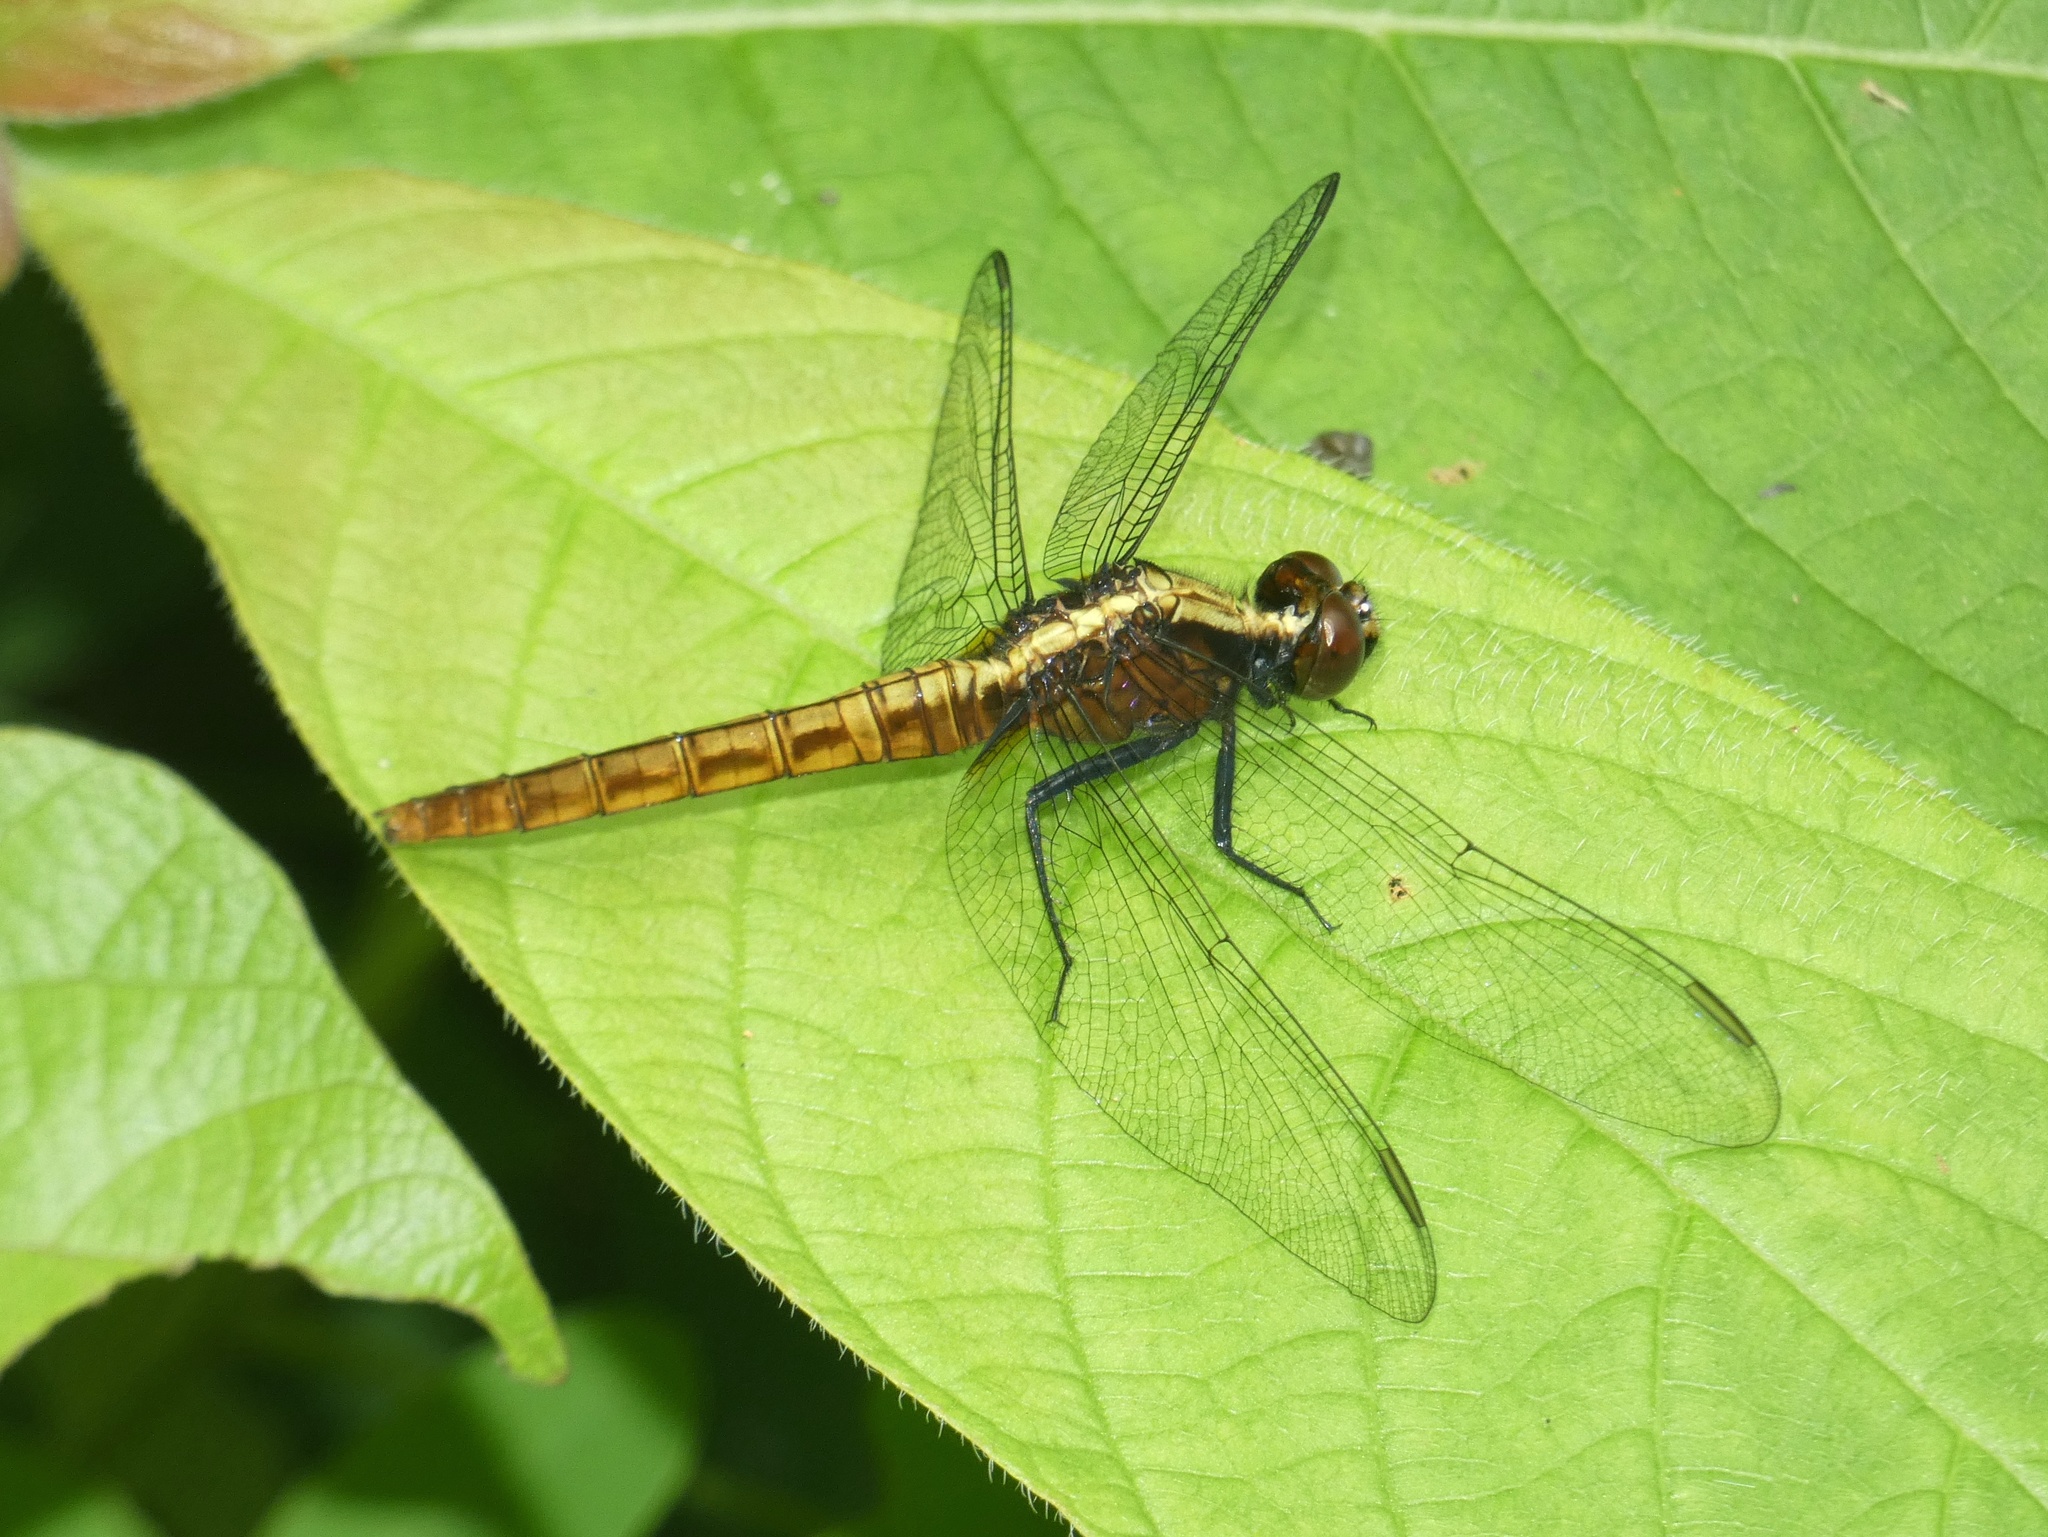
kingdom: Animalia
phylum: Arthropoda
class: Insecta
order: Odonata
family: Libellulidae
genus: Erythemis
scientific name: Erythemis peruviana
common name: Flame-tailed pondhawk
